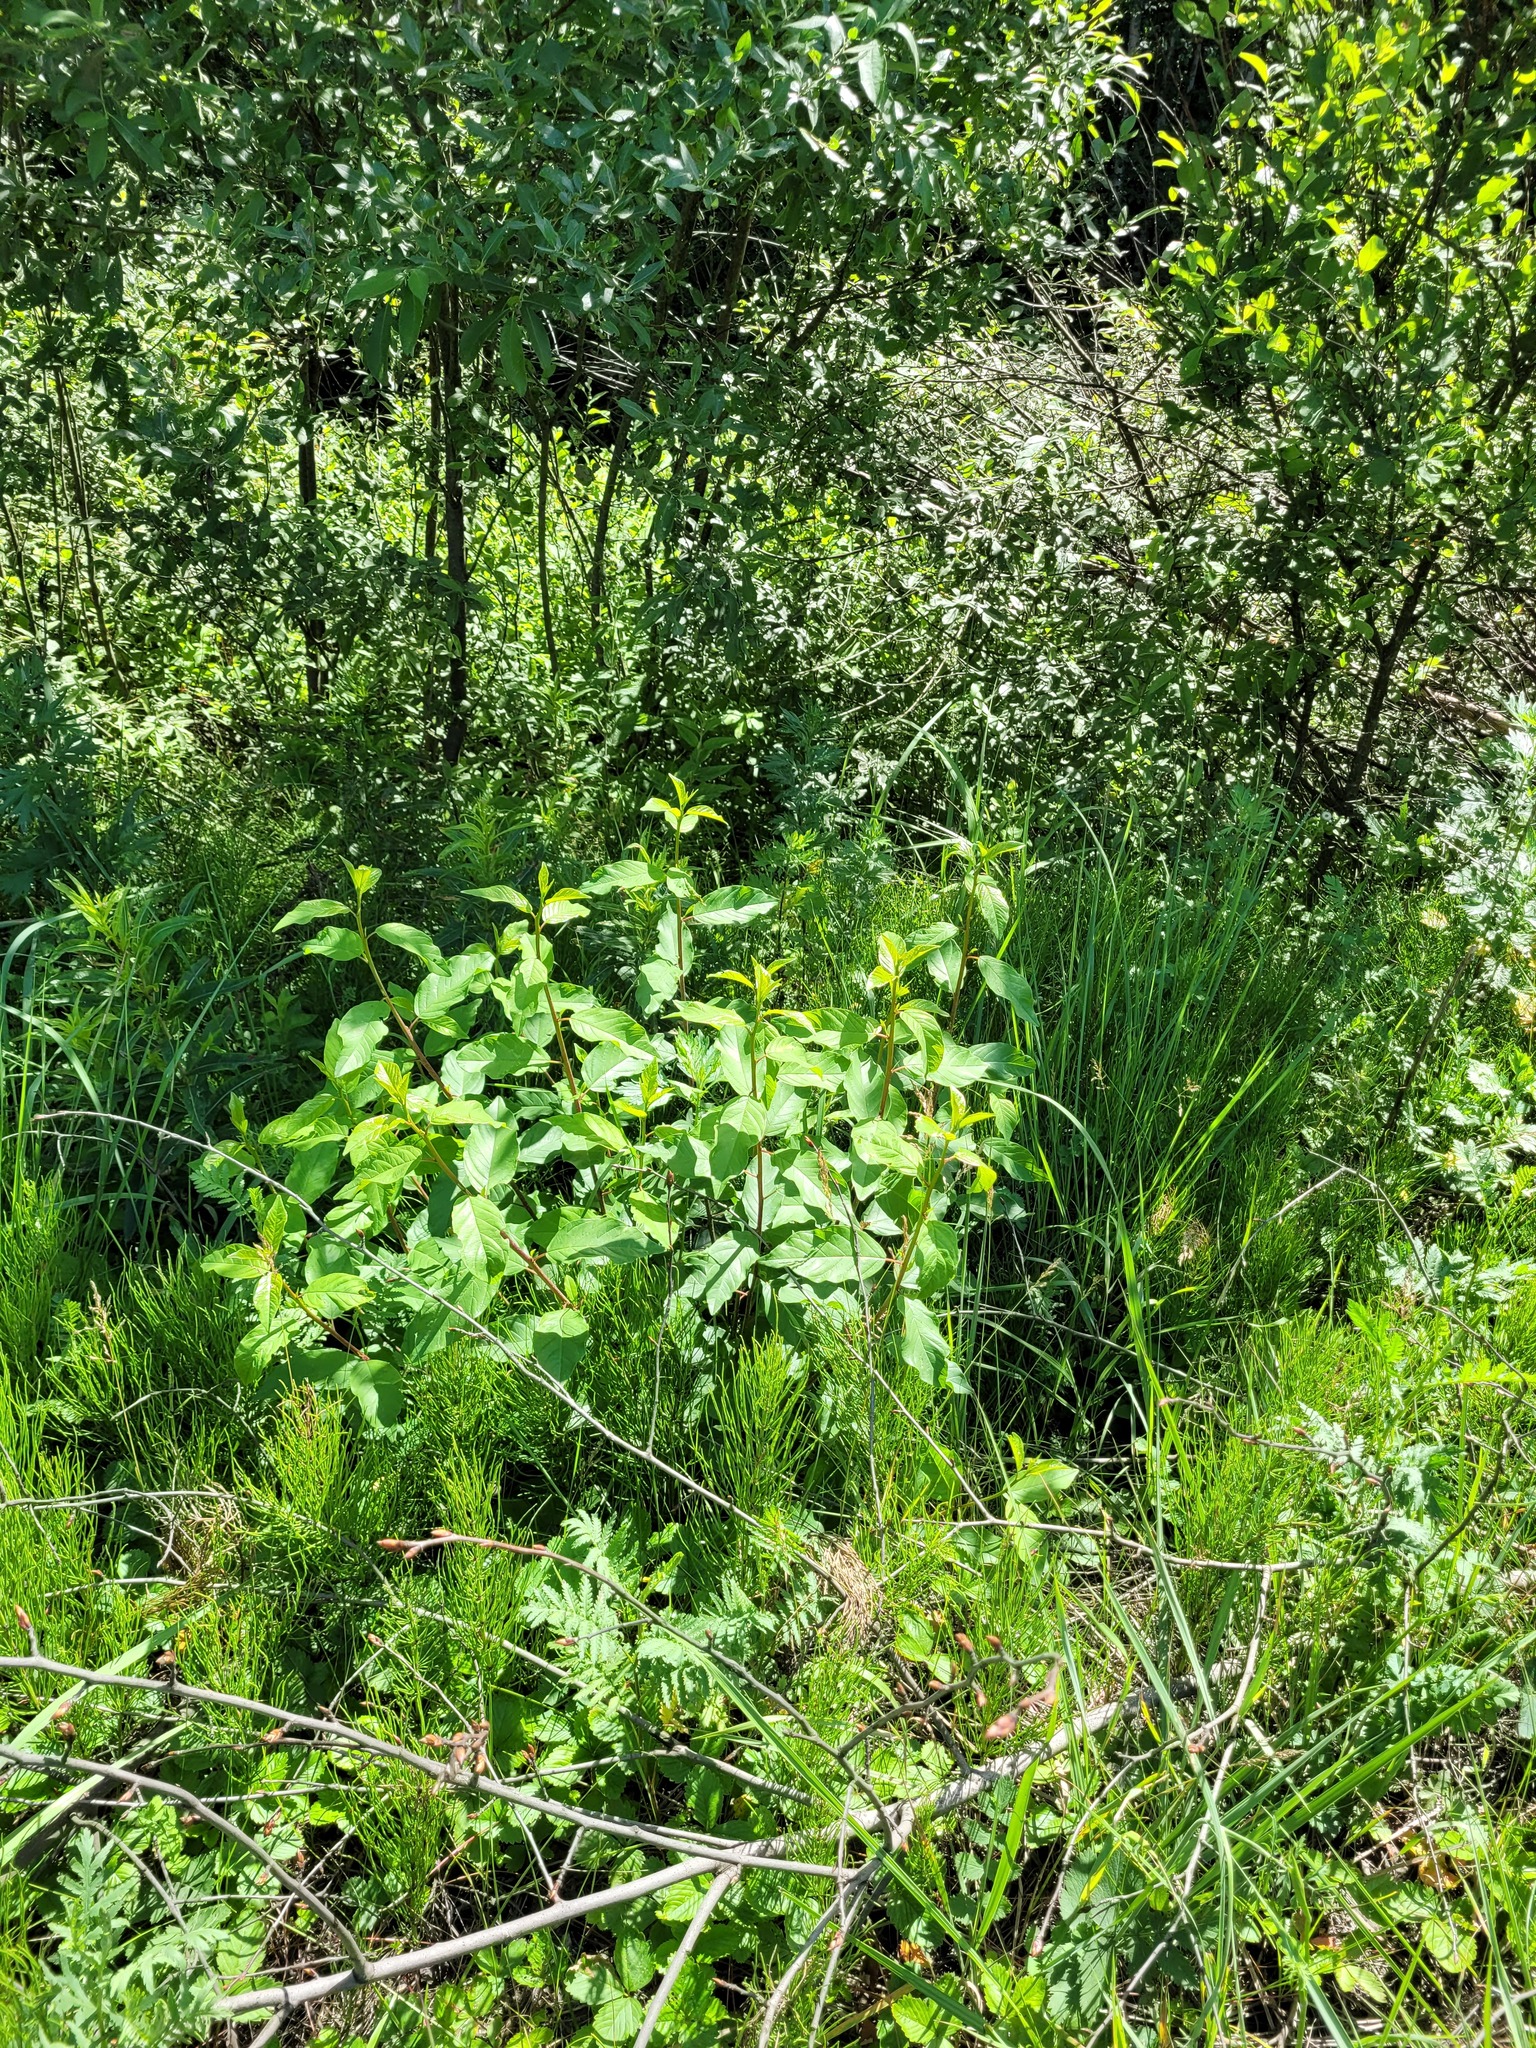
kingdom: Plantae
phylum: Tracheophyta
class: Magnoliopsida
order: Rosales
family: Rhamnaceae
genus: Frangula
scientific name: Frangula alnus
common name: Alder buckthorn
